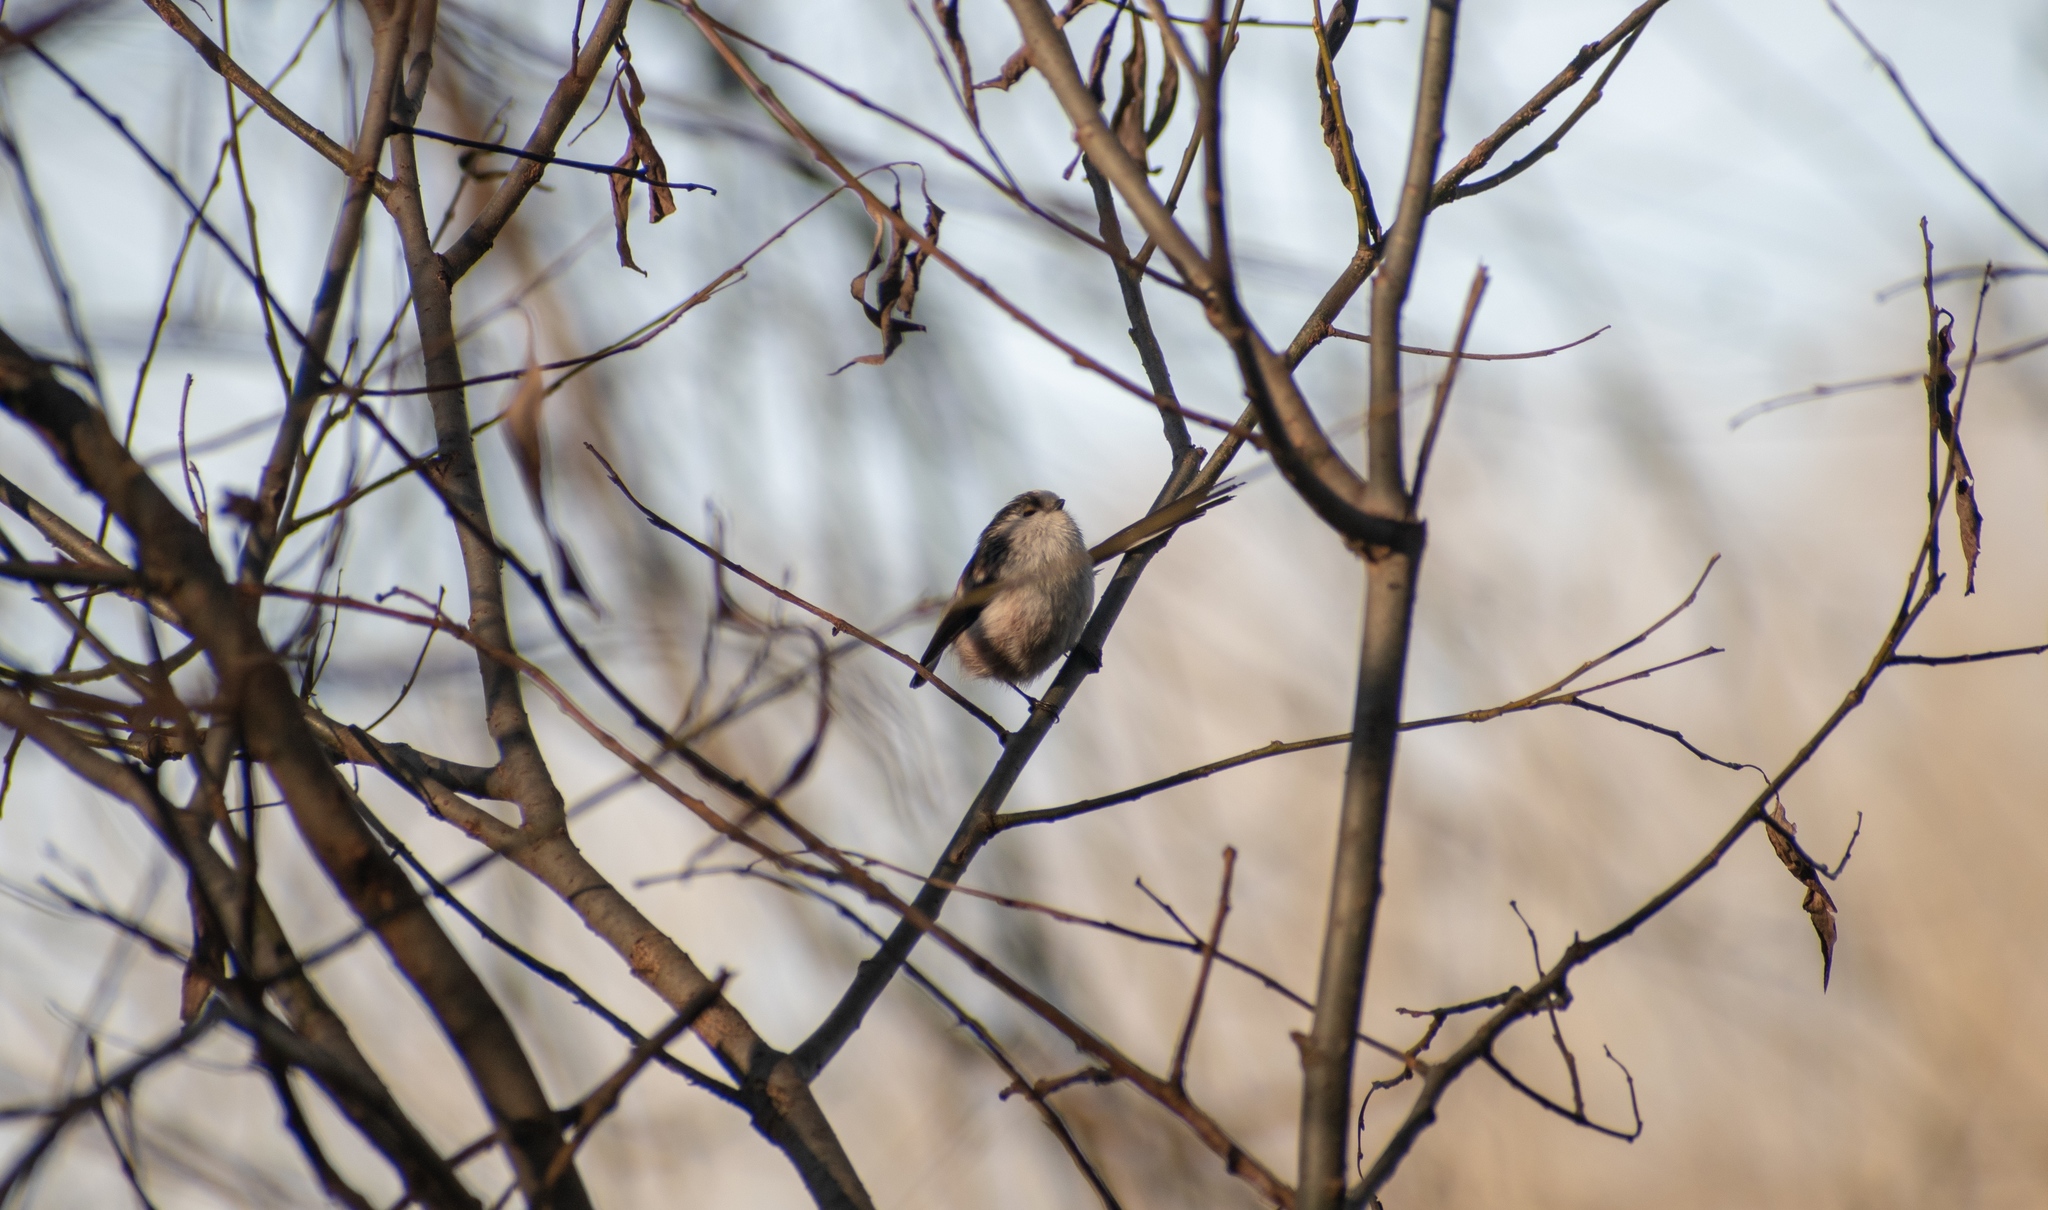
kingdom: Animalia
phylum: Chordata
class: Aves
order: Passeriformes
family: Aegithalidae
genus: Aegithalos
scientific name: Aegithalos caudatus
